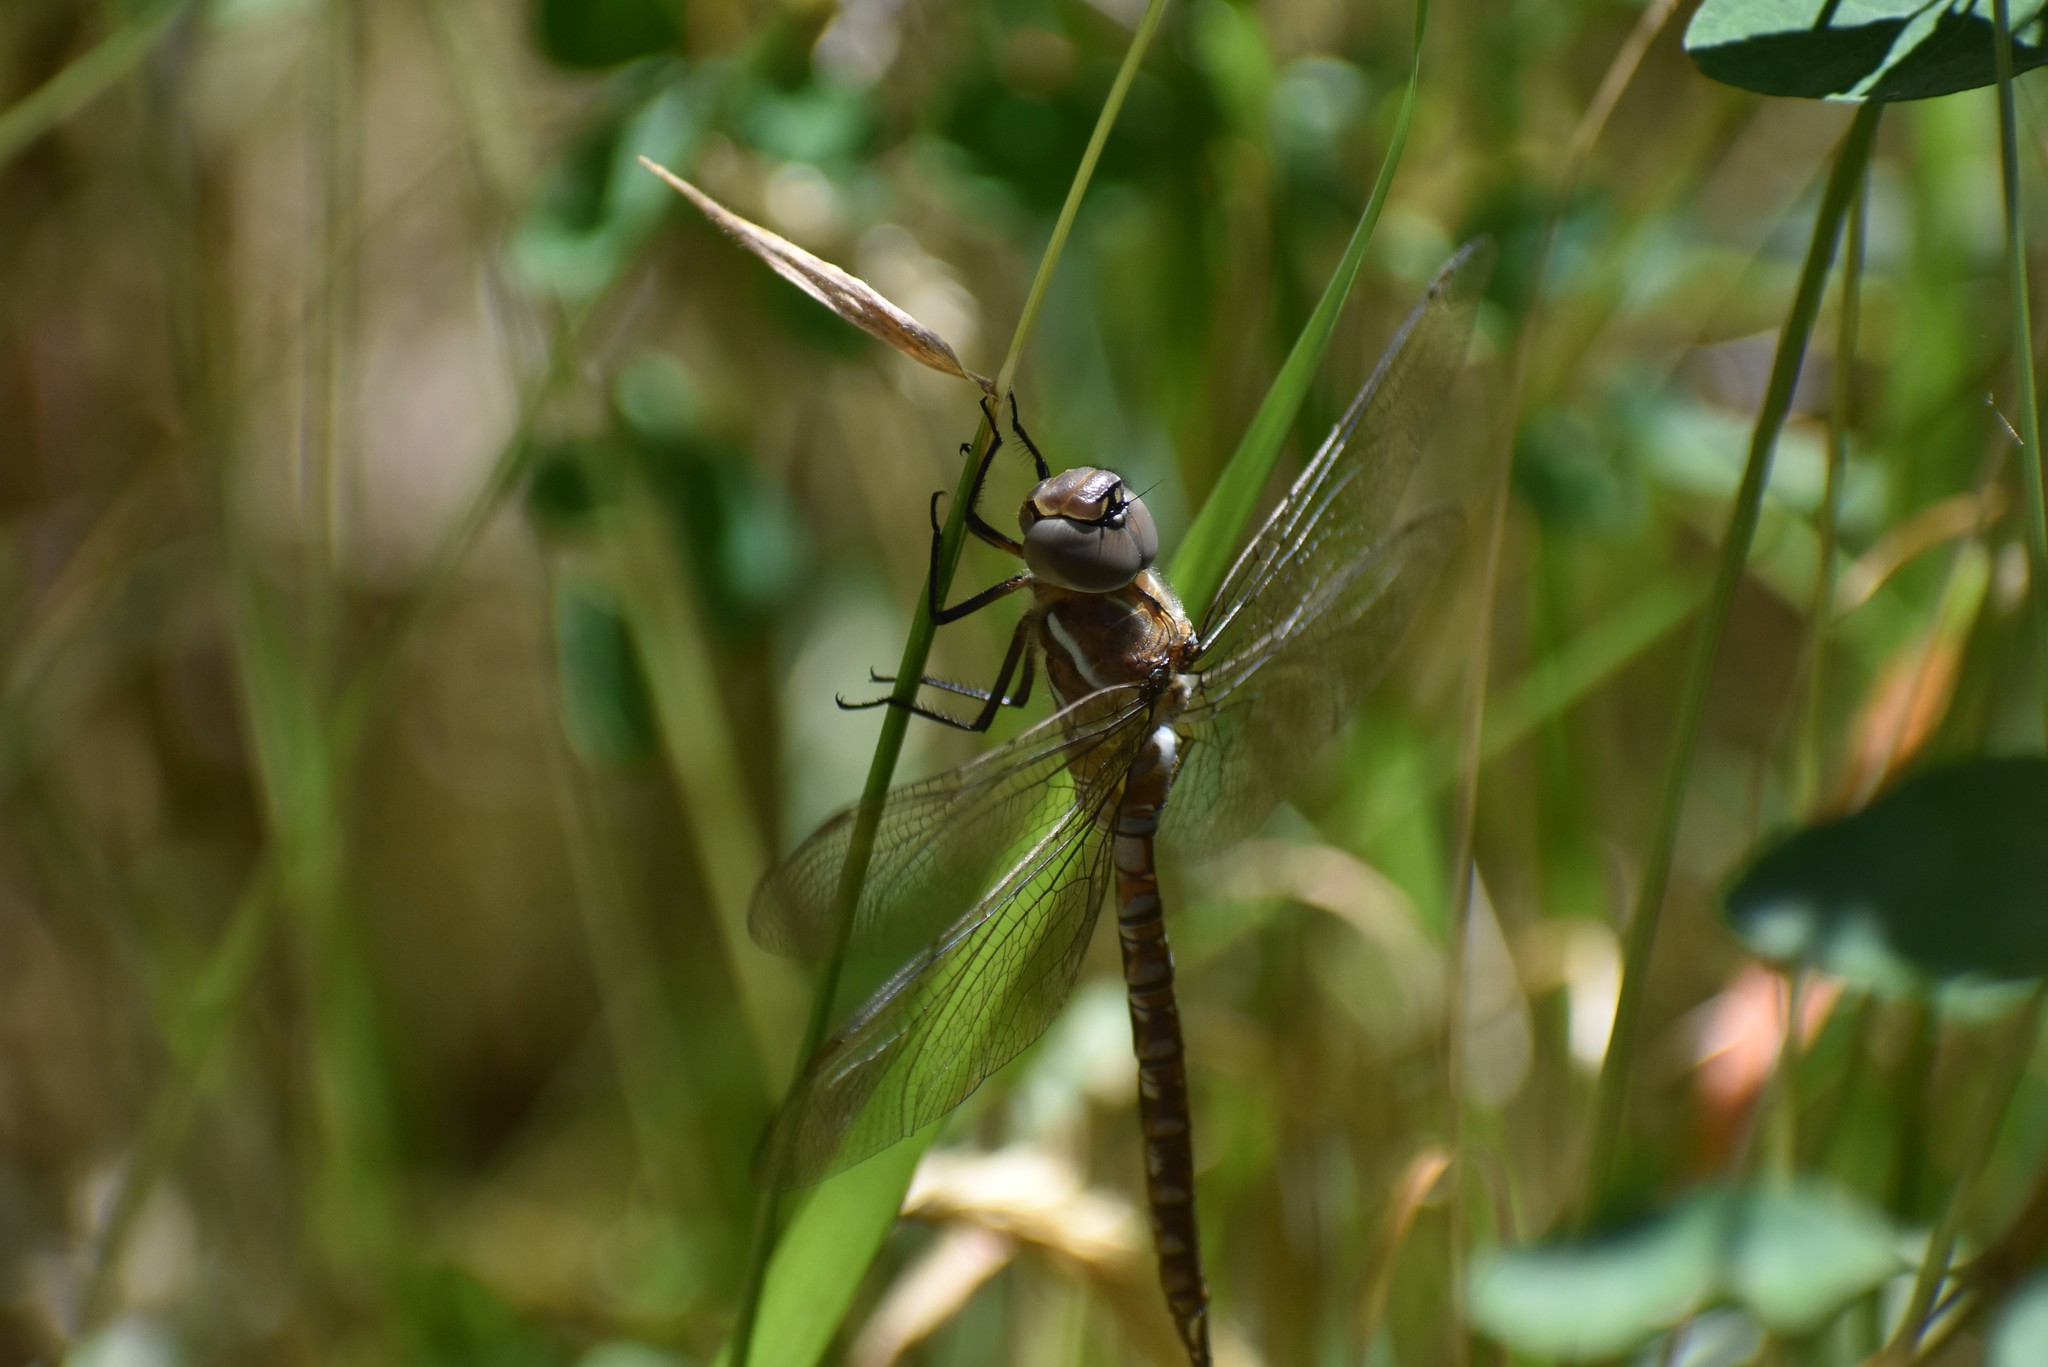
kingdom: Animalia
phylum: Arthropoda
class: Insecta
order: Odonata
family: Aeshnidae
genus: Rhionaeschna
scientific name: Rhionaeschna multicolor
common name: Blue-eyed darner
